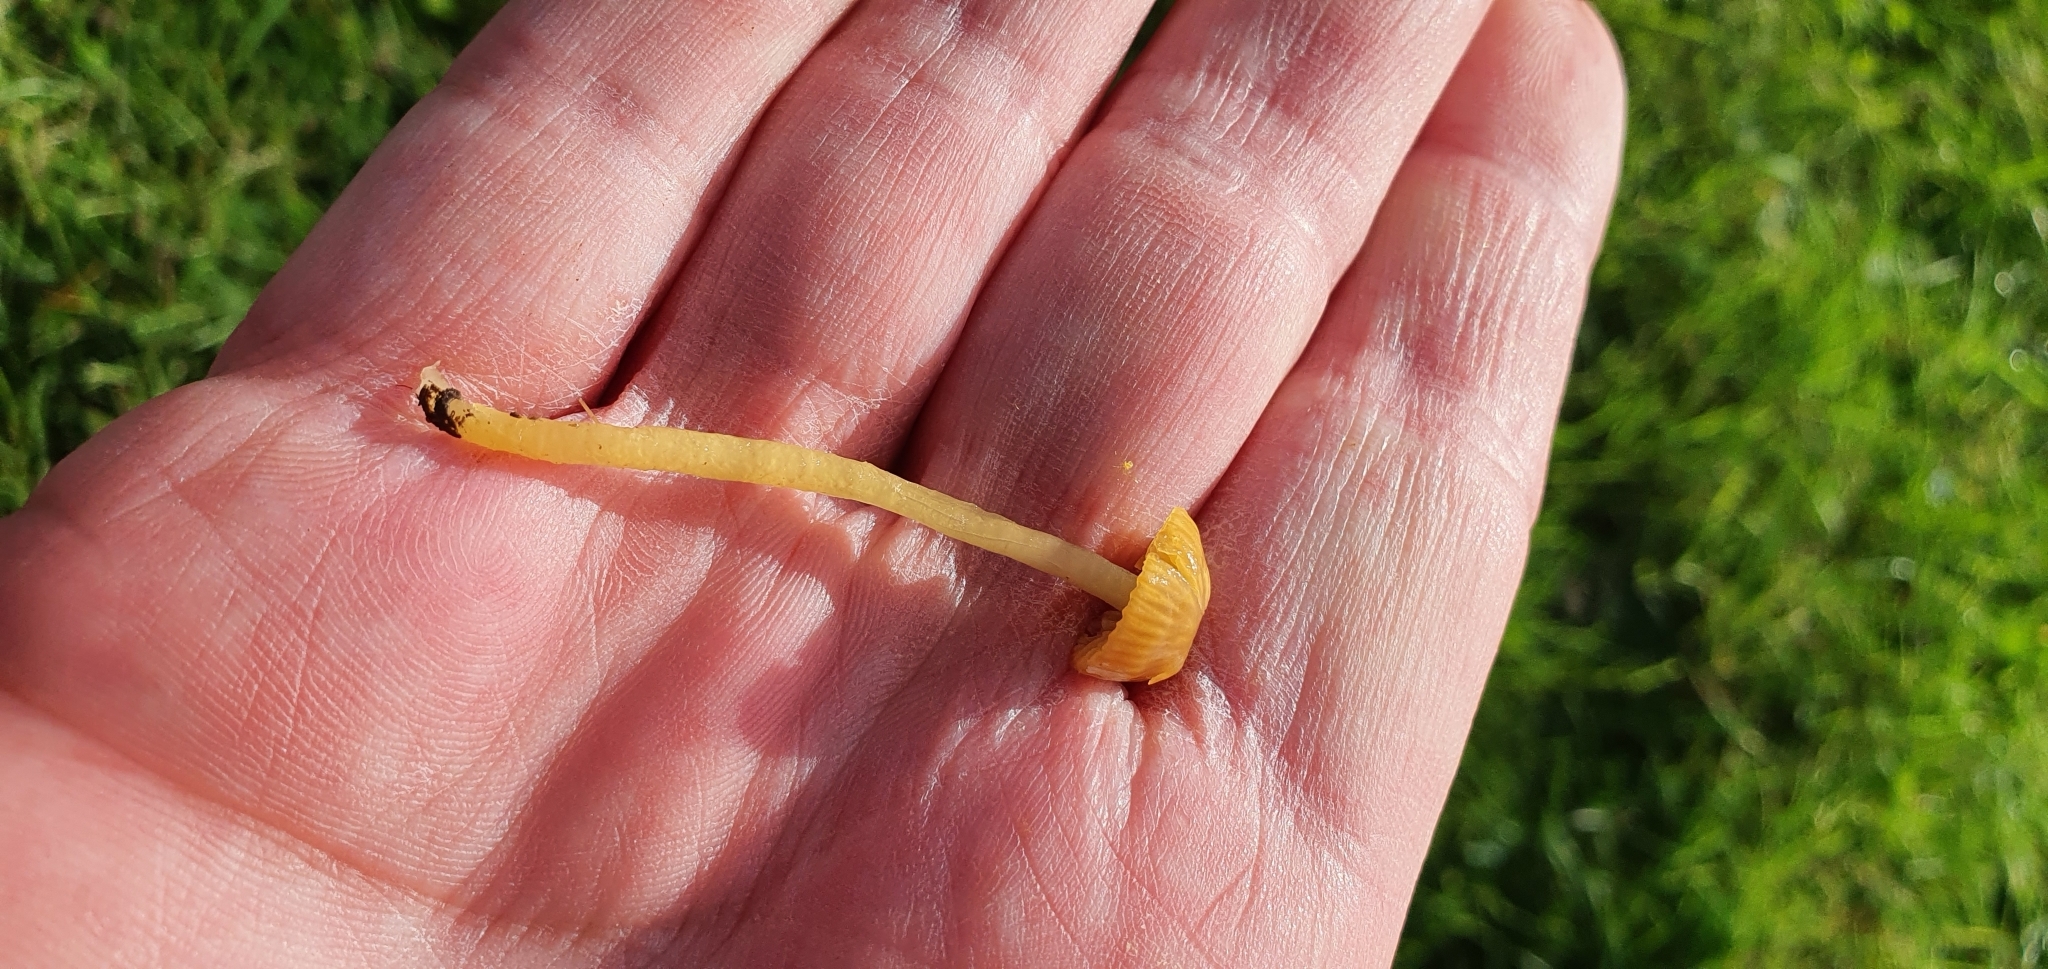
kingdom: Fungi
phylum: Basidiomycota
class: Agaricomycetes
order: Agaricales
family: Hygrophoraceae
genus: Gliophorus
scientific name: Gliophorus psittacinus
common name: Parrot wax-cap
